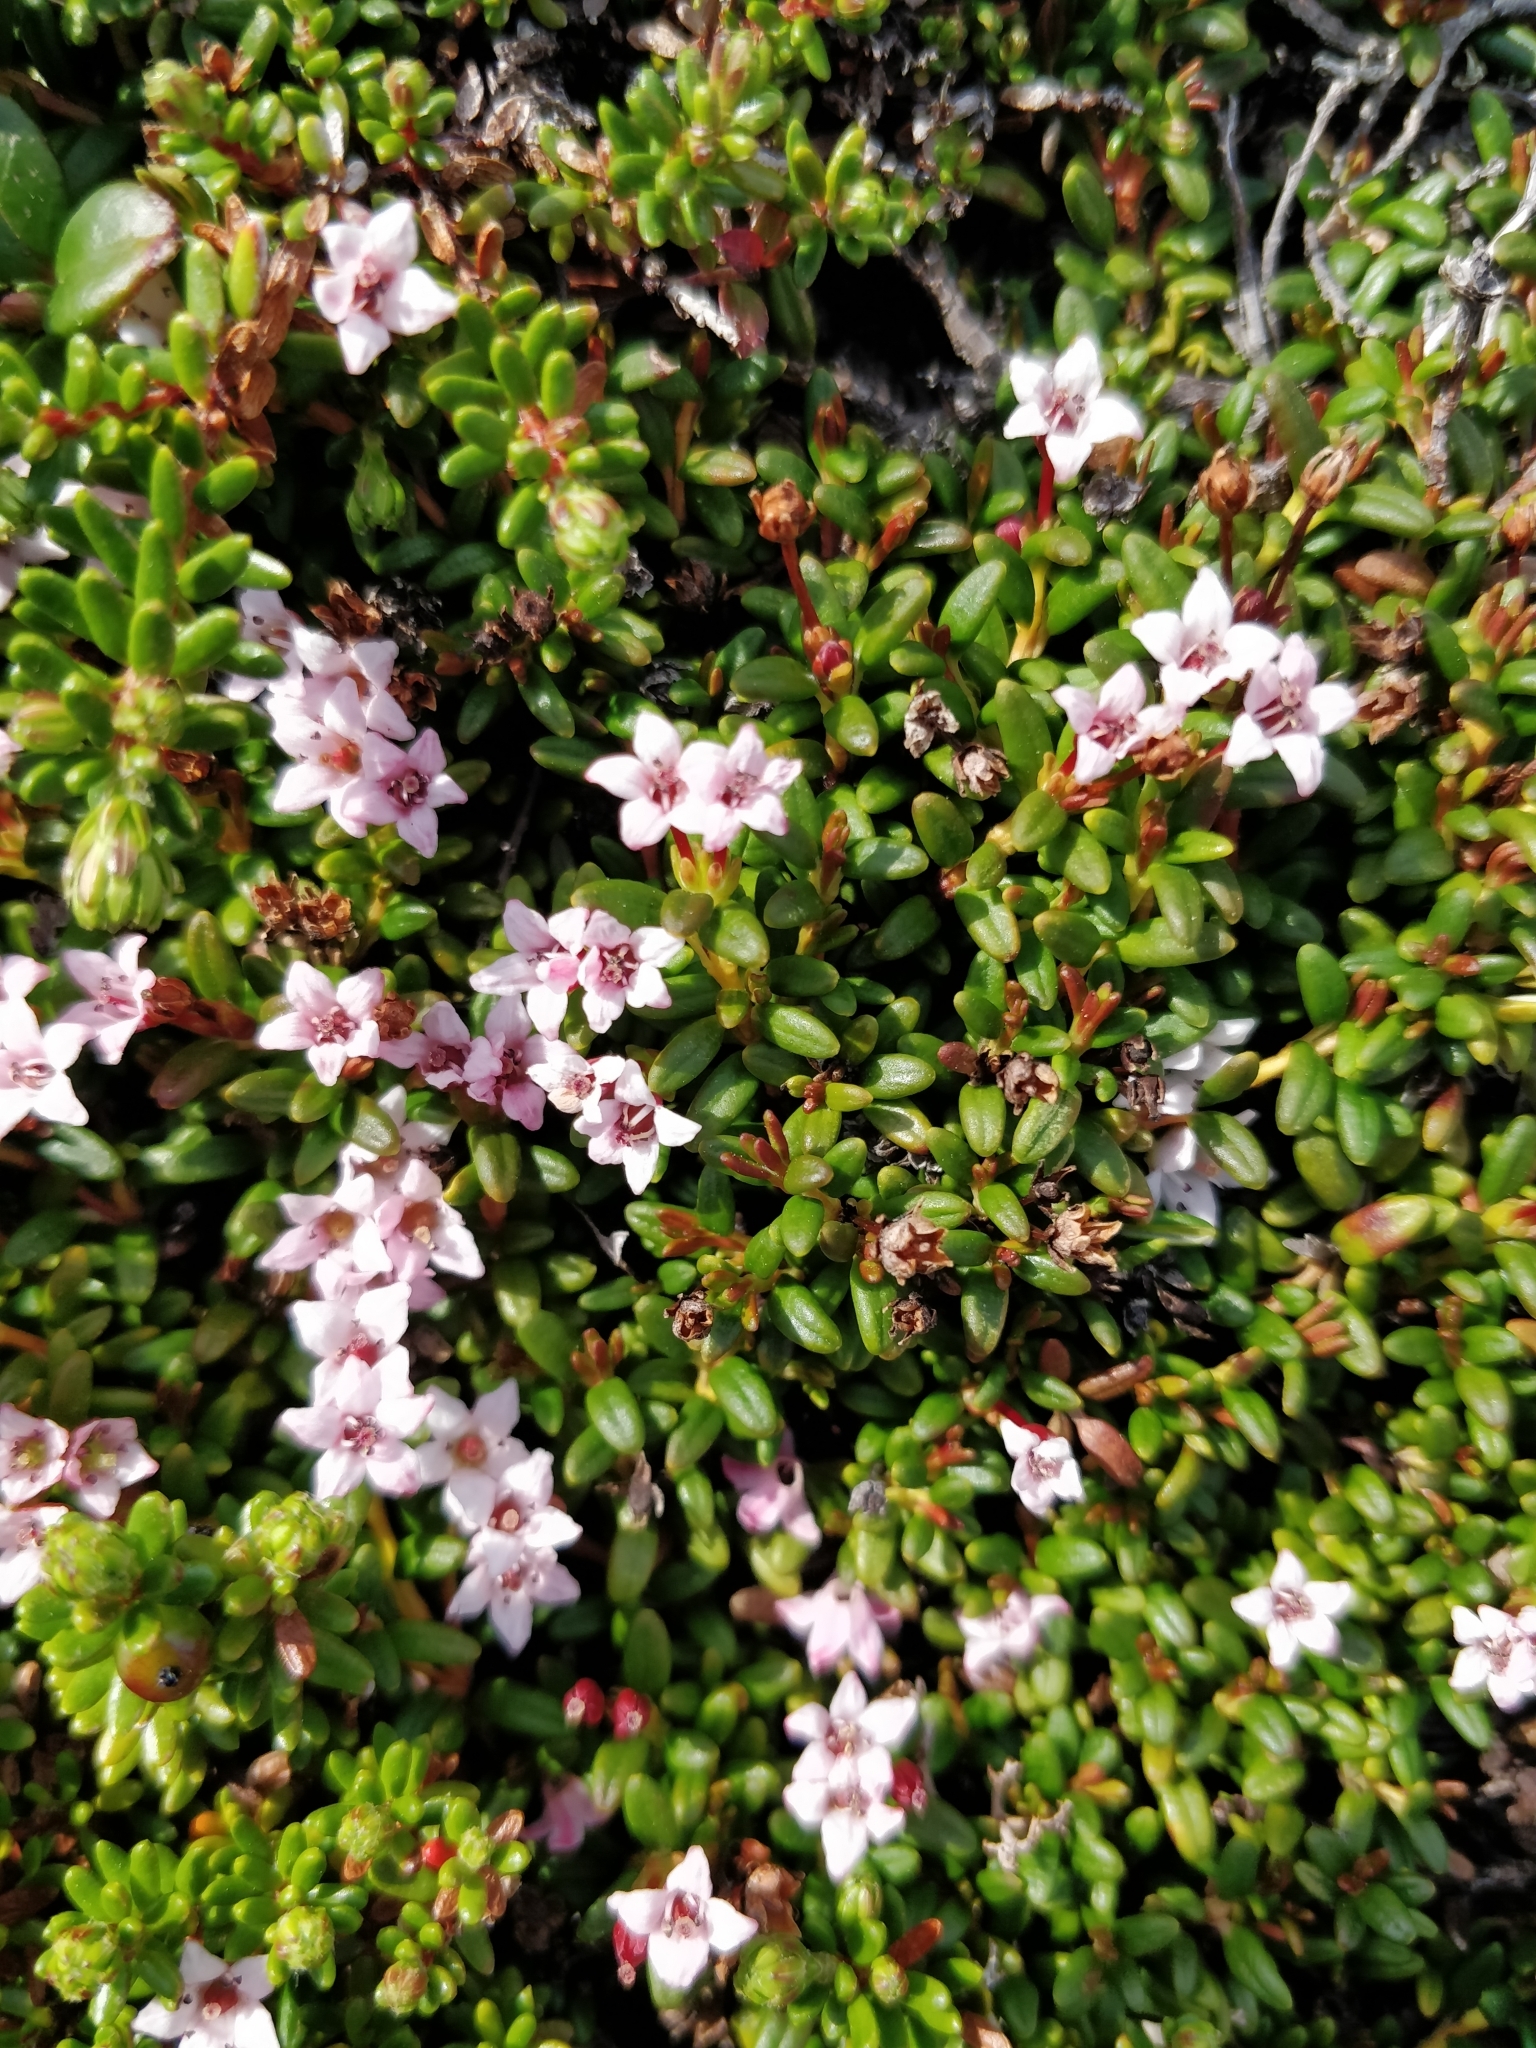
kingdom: Plantae
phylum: Tracheophyta
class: Magnoliopsida
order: Ericales
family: Ericaceae
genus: Kalmia
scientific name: Kalmia procumbens
